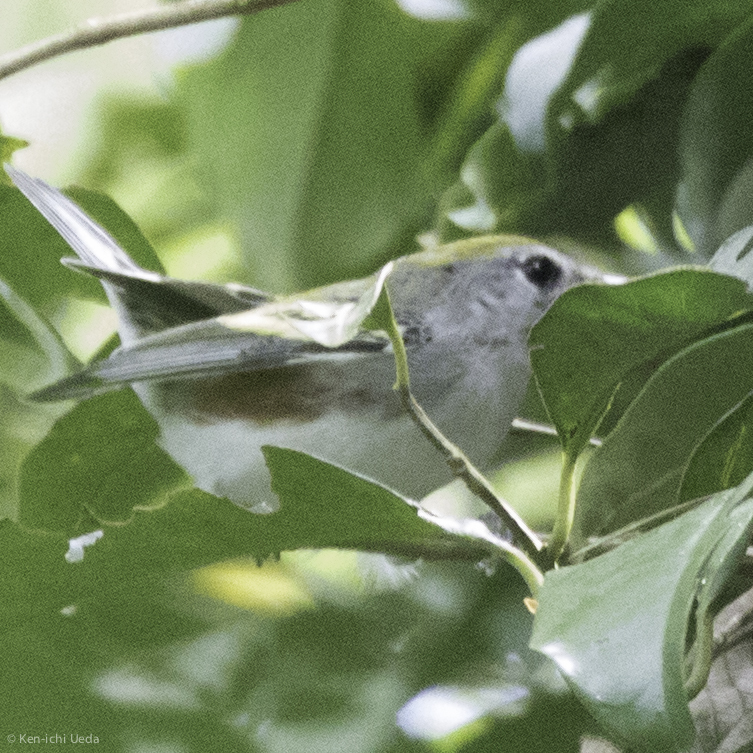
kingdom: Animalia
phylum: Chordata
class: Aves
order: Passeriformes
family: Parulidae
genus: Setophaga
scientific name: Setophaga pensylvanica
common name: Chestnut-sided warbler
